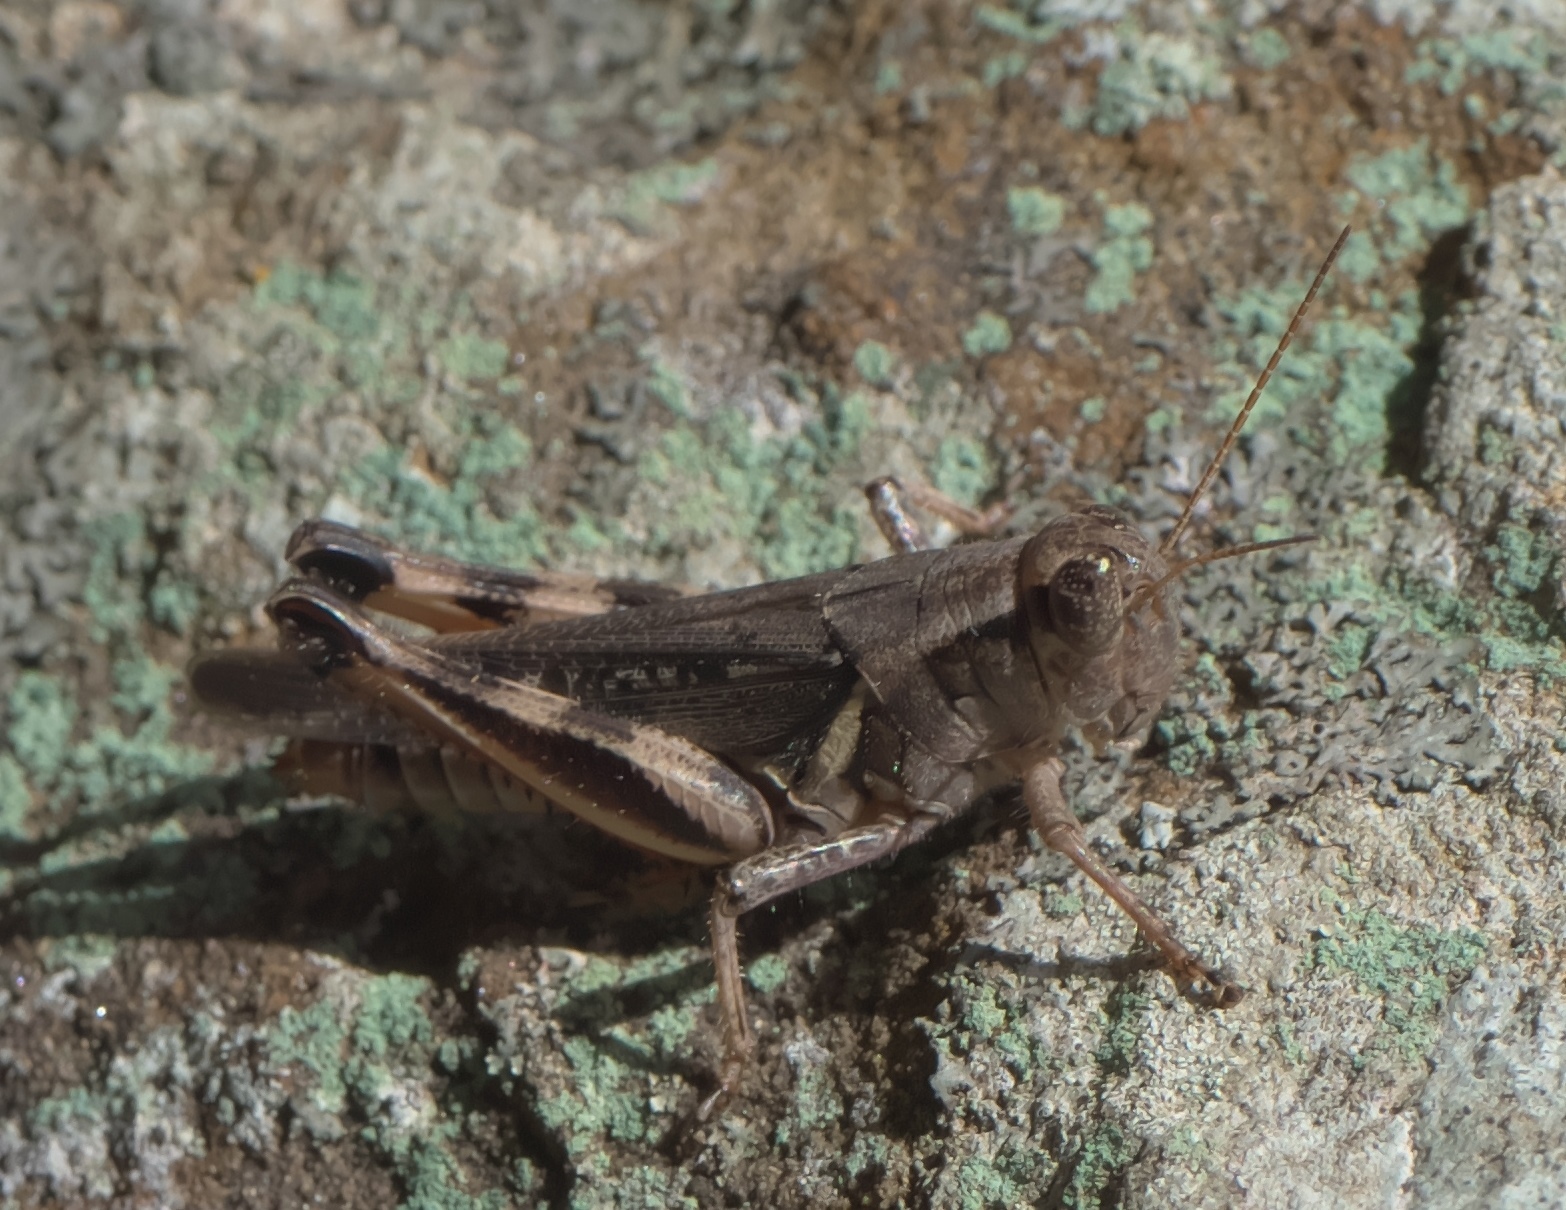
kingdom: Animalia
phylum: Arthropoda
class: Insecta
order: Orthoptera
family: Acrididae
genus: Melanoplus
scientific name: Melanoplus keeleri
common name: Keeler grasshopper
